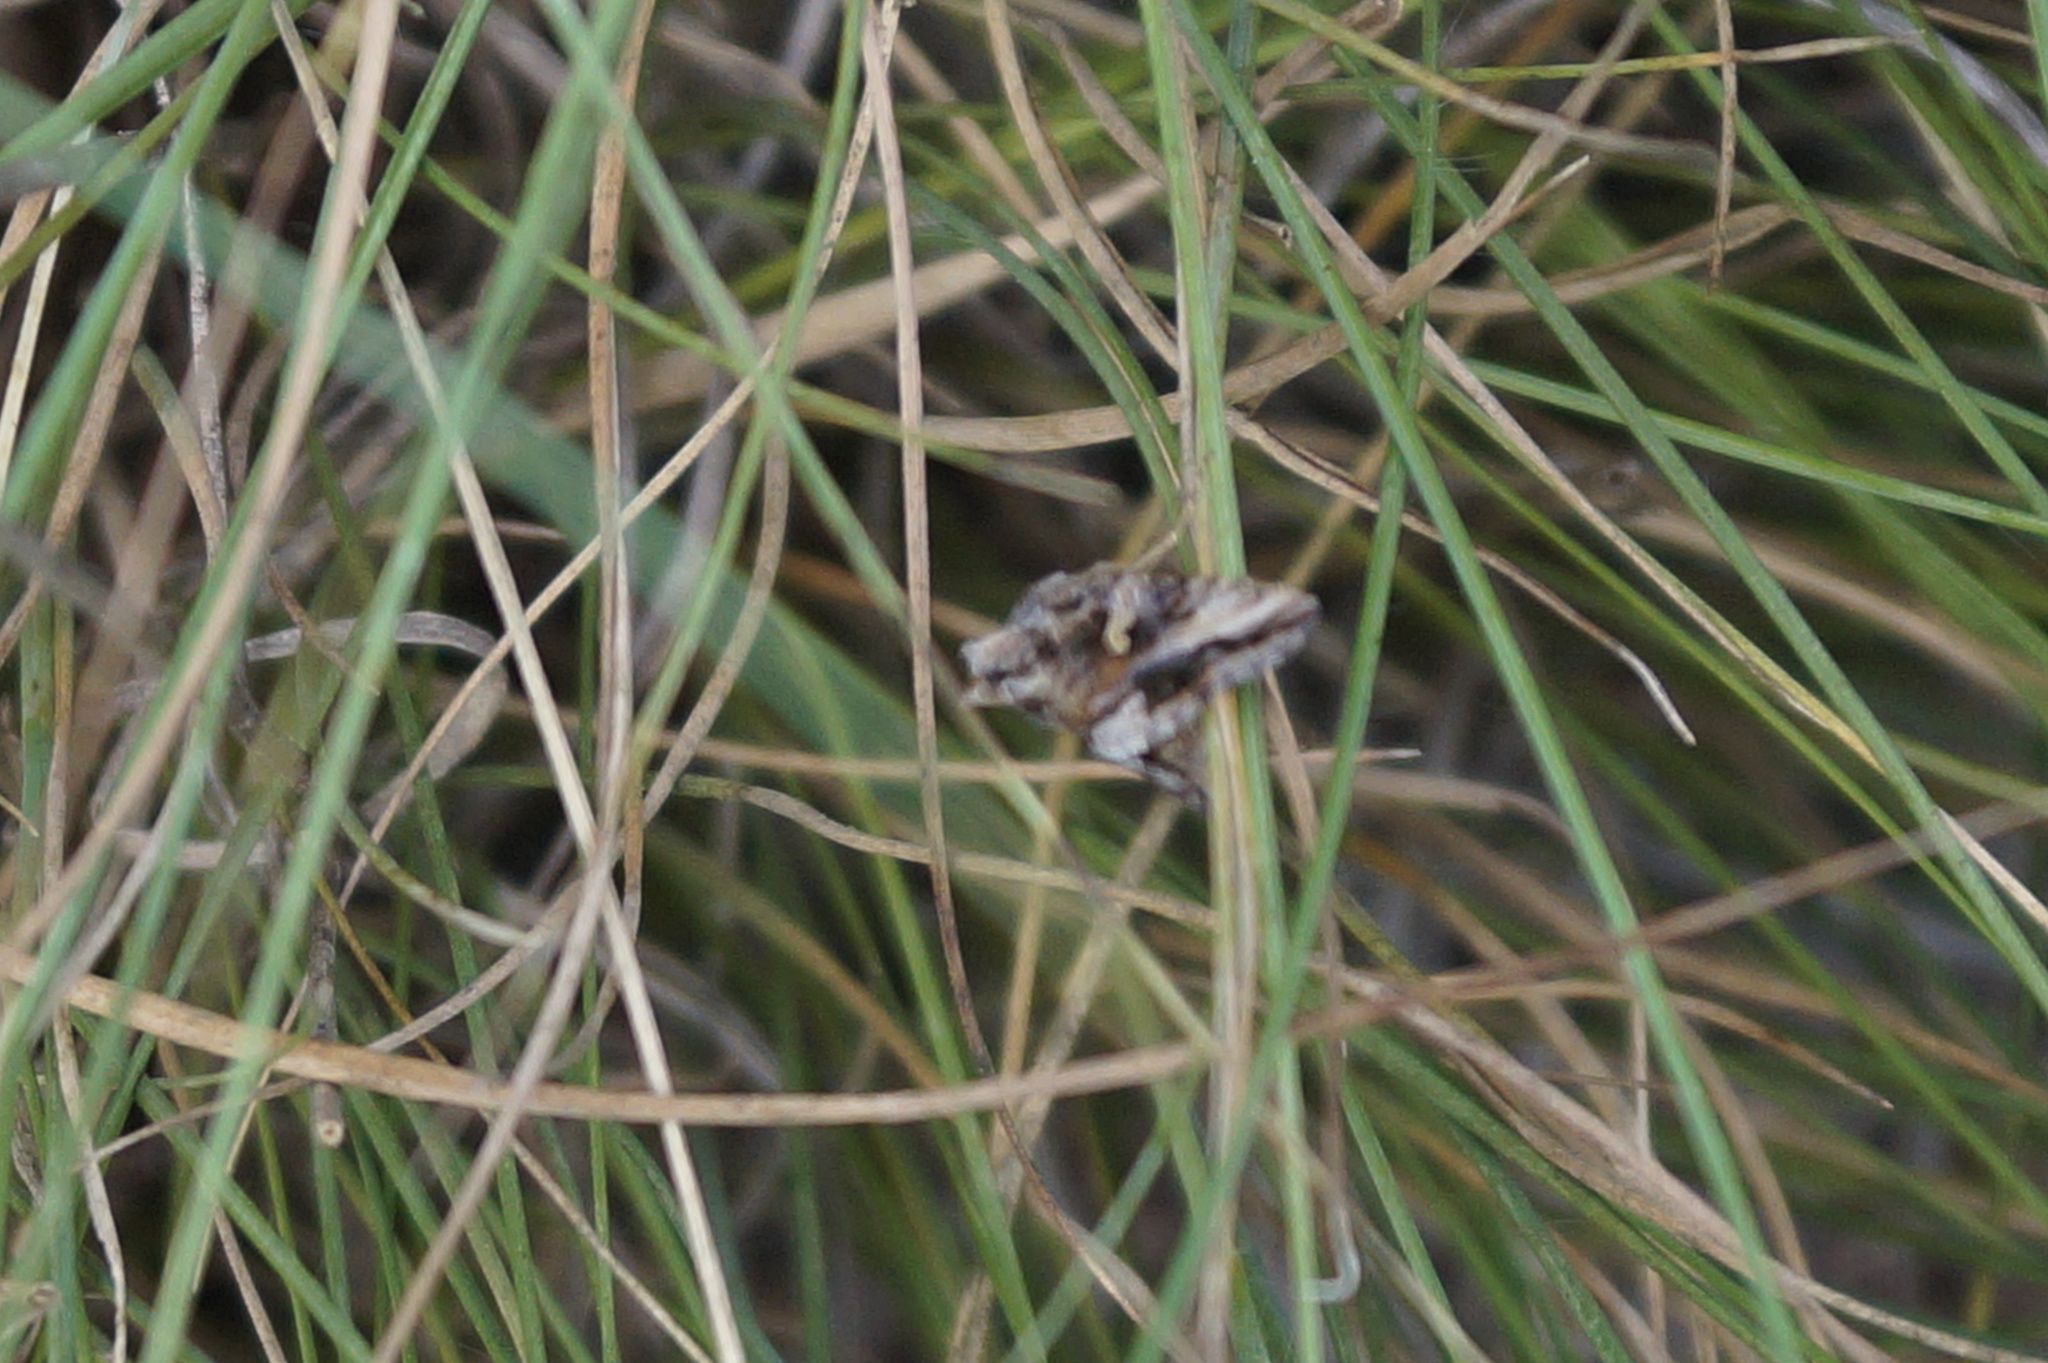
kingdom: Animalia
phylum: Arthropoda
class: Insecta
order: Lepidoptera
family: Noctuidae
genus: Autographa
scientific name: Autographa gamma
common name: Silver y
